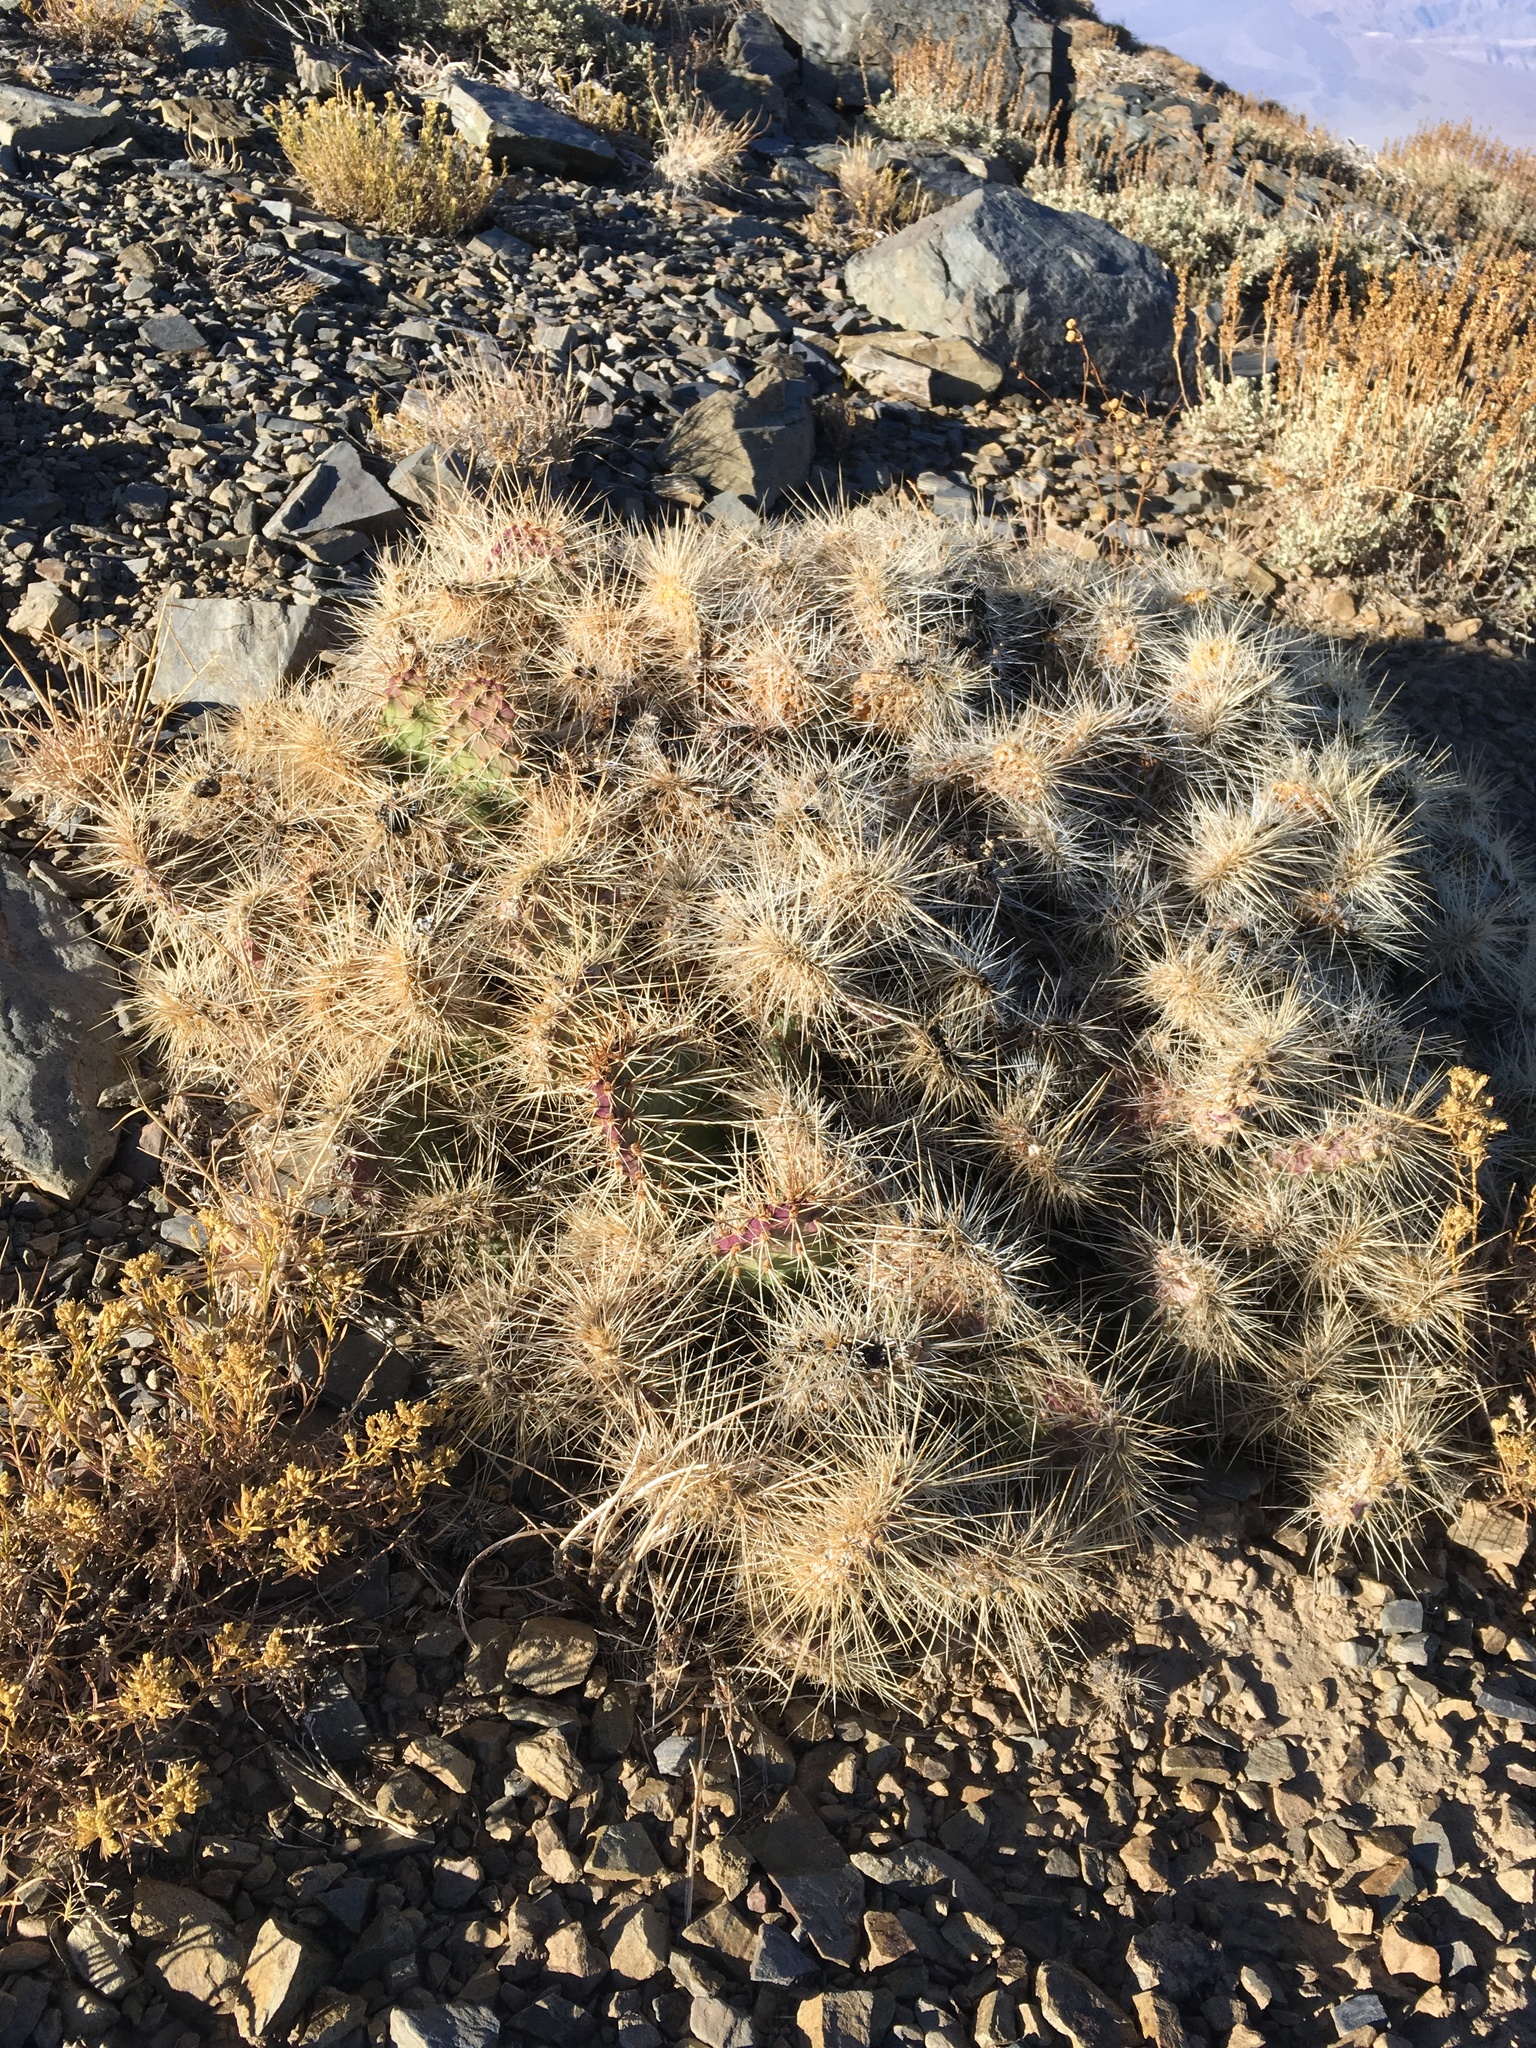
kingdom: Plantae
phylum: Tracheophyta
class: Magnoliopsida
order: Caryophyllales
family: Cactaceae
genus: Opuntia
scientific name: Opuntia polyacantha
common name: Plains prickly-pear
